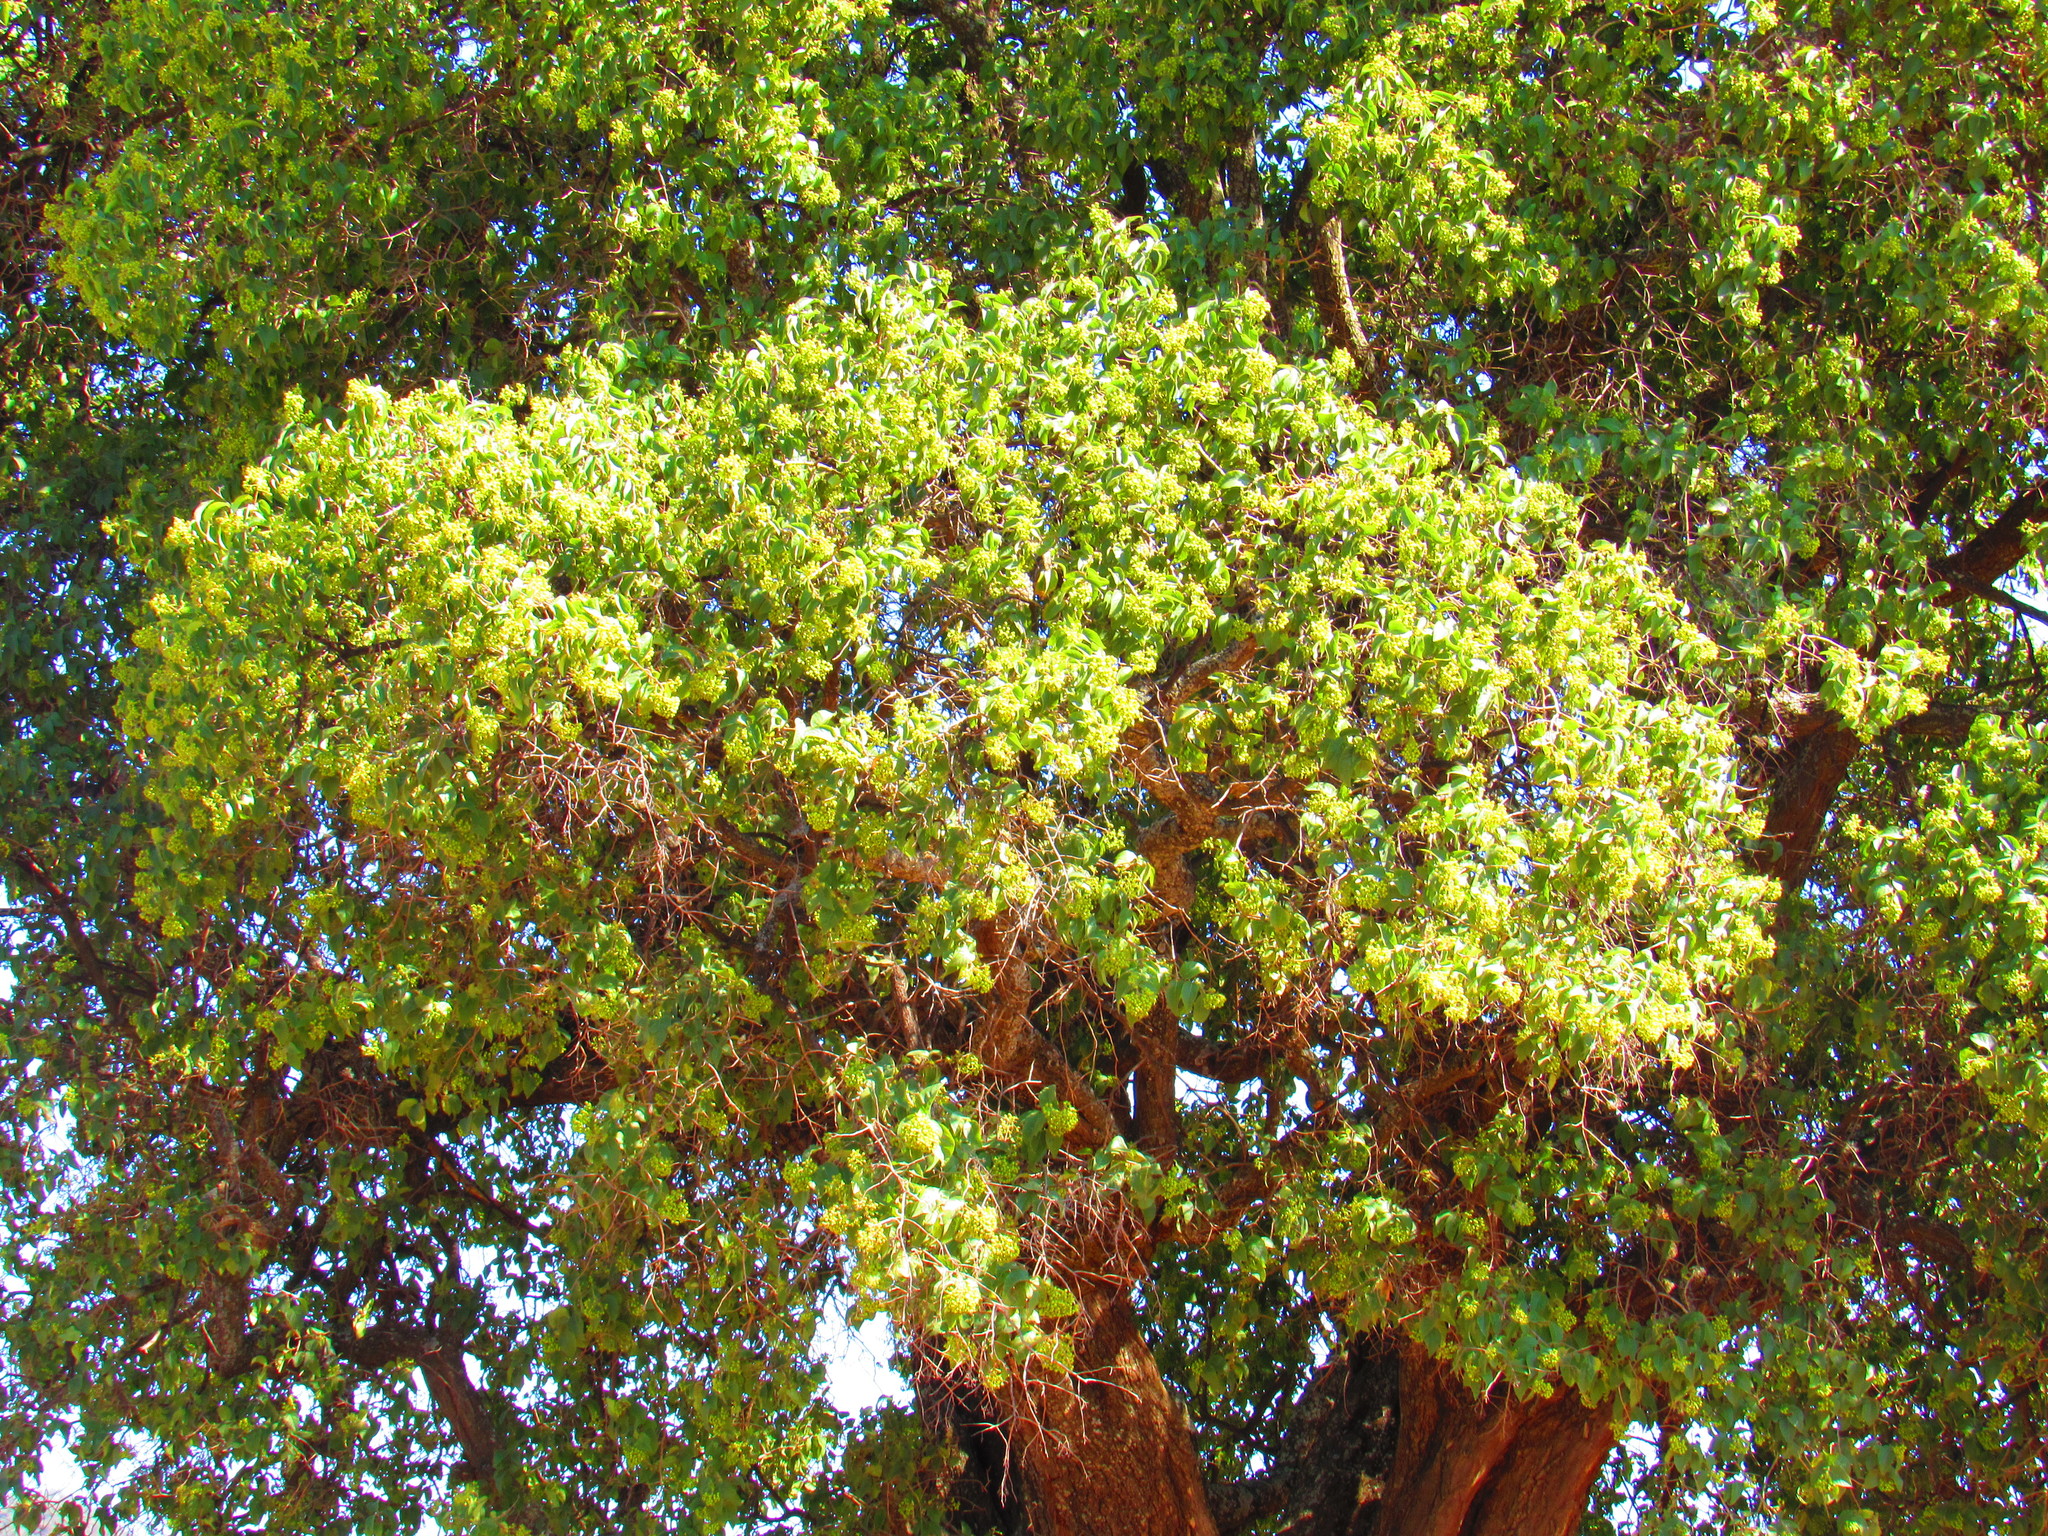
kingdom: Plantae
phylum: Tracheophyta
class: Magnoliopsida
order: Boraginales
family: Ehretiaceae
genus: Ehretia
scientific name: Ehretia latifolia
